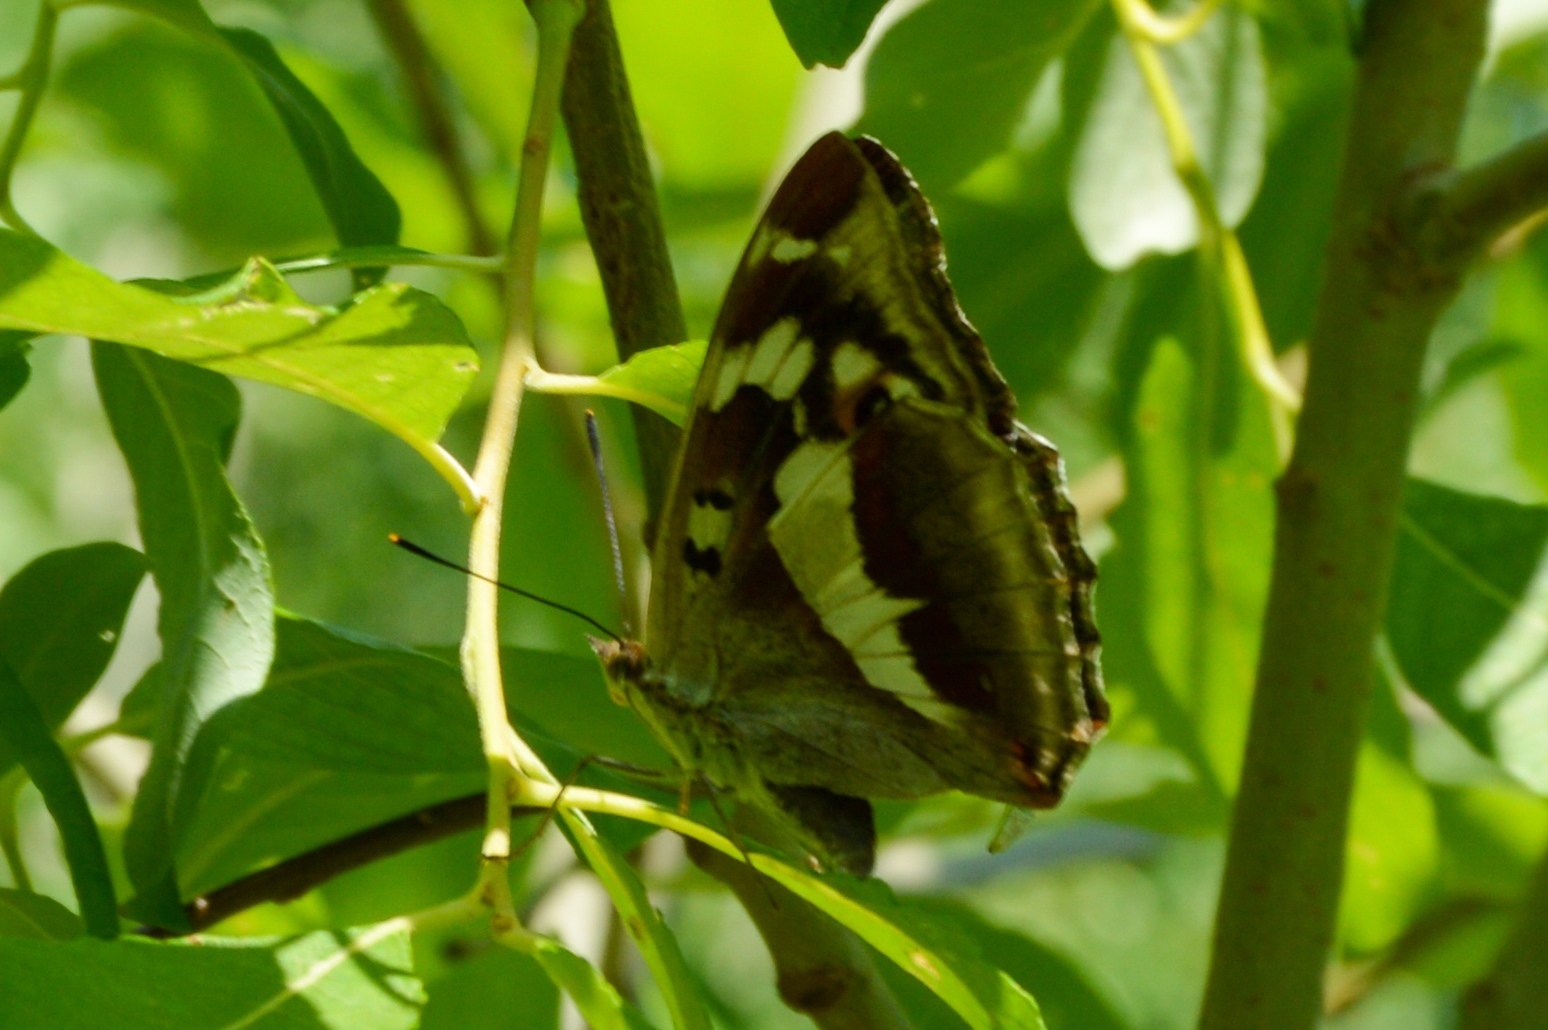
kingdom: Animalia
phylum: Arthropoda
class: Insecta
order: Lepidoptera
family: Nymphalidae
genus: Apatura
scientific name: Apatura iris
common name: Purple emperor
